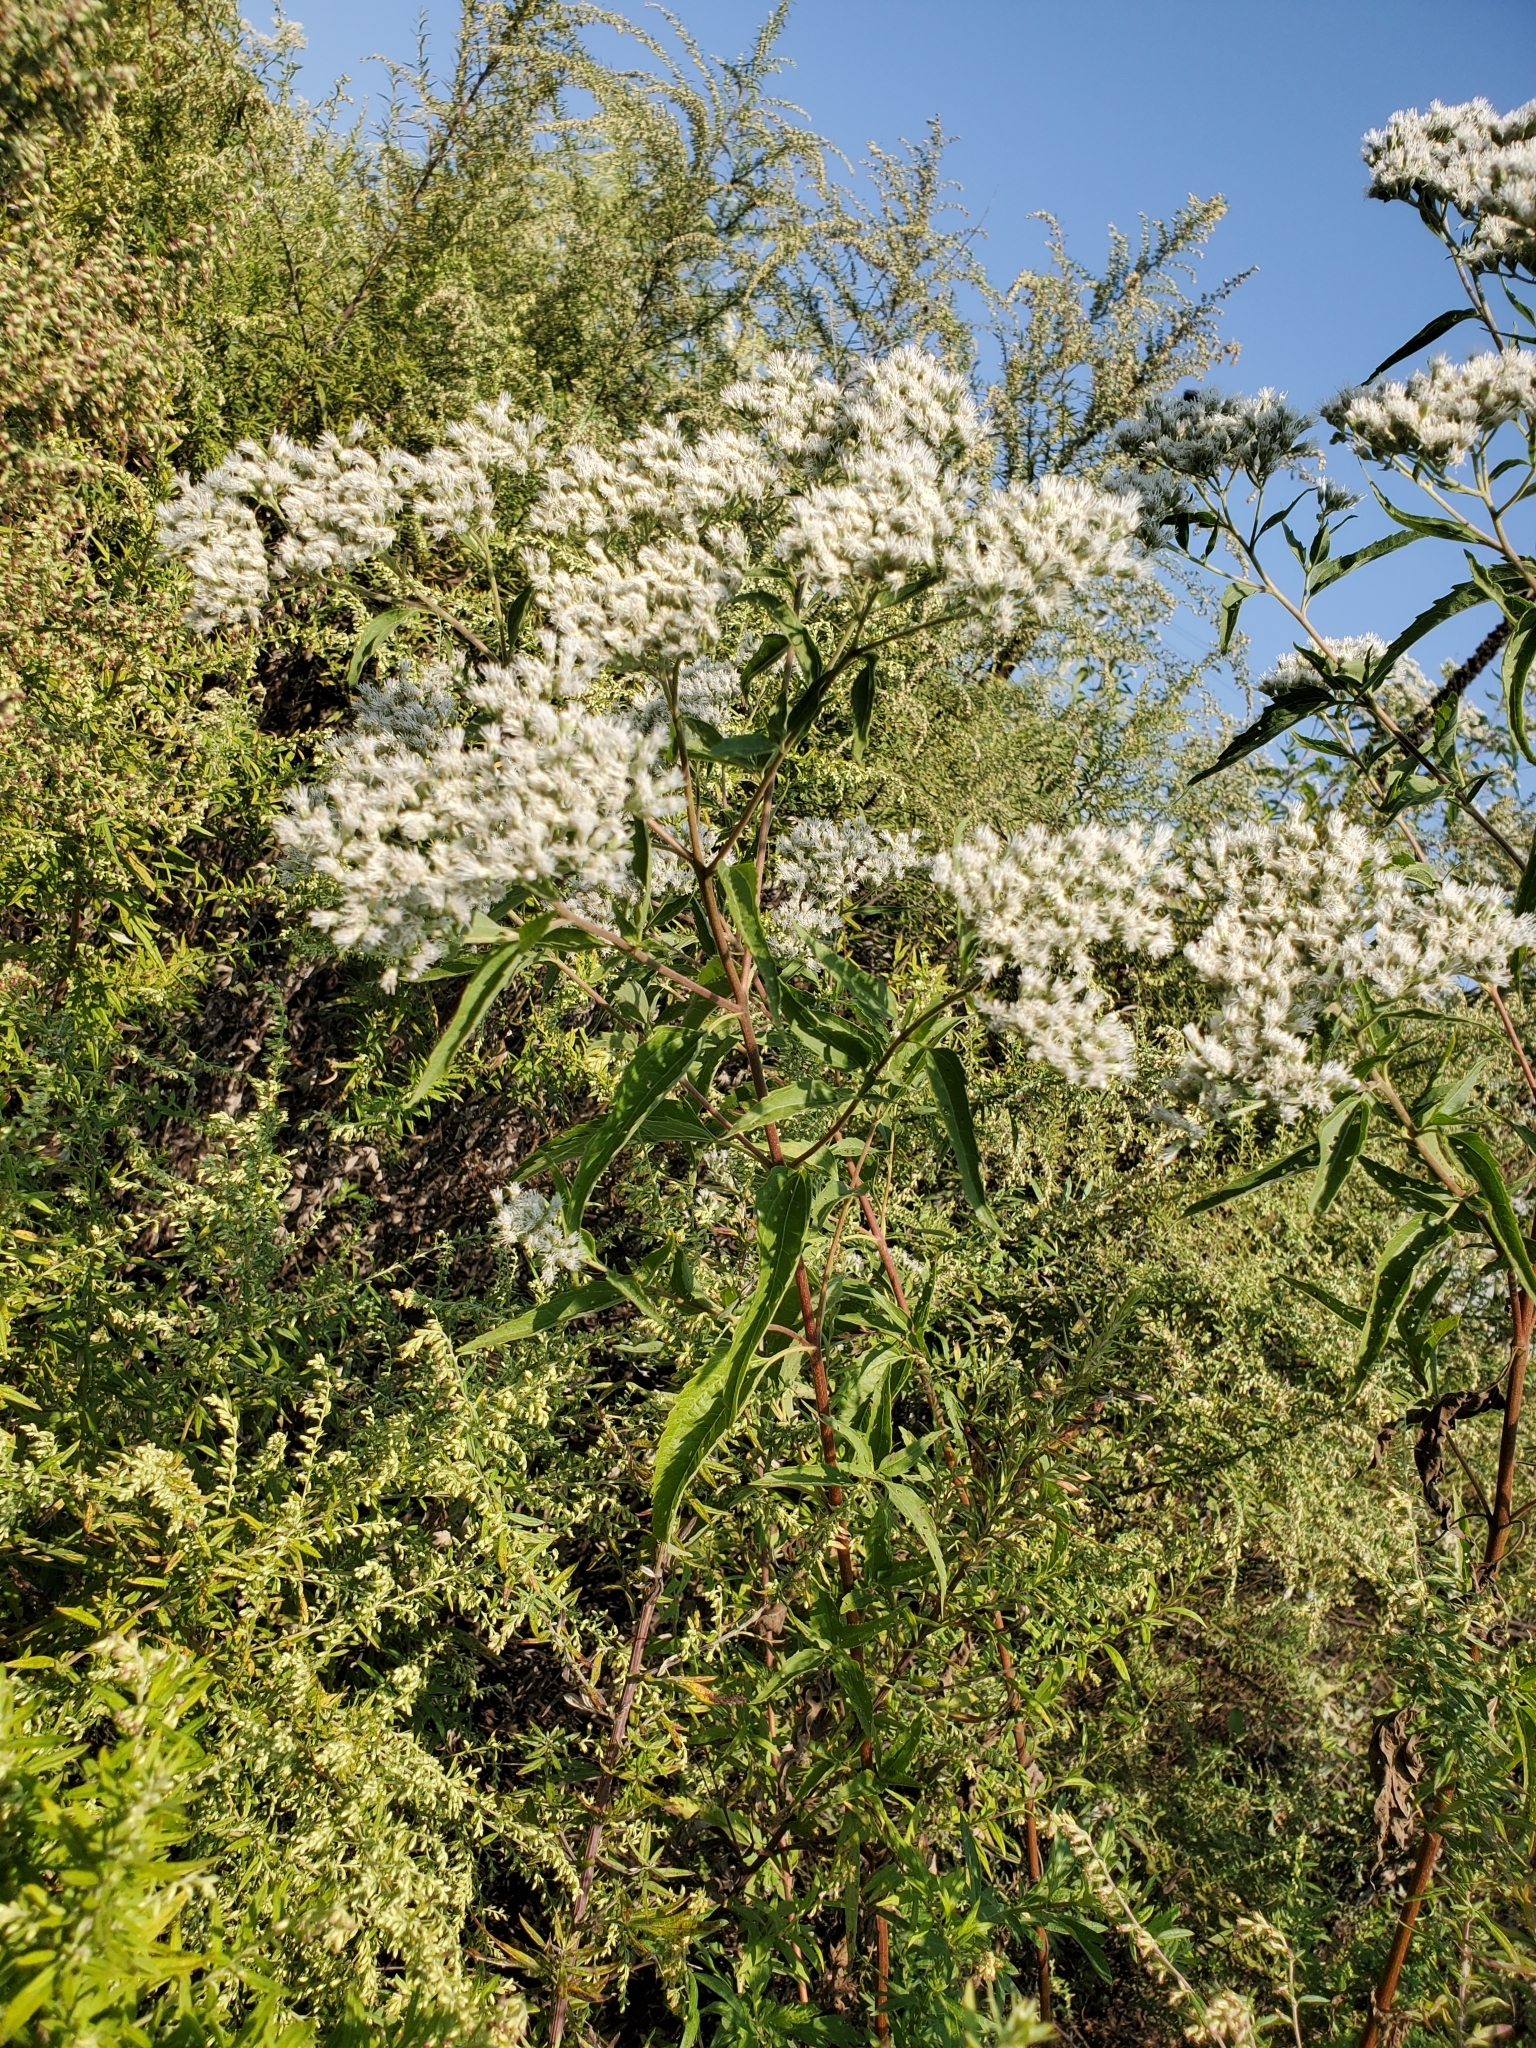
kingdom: Plantae
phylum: Tracheophyta
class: Magnoliopsida
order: Asterales
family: Asteraceae
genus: Eupatorium
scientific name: Eupatorium serotinum
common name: Late boneset
